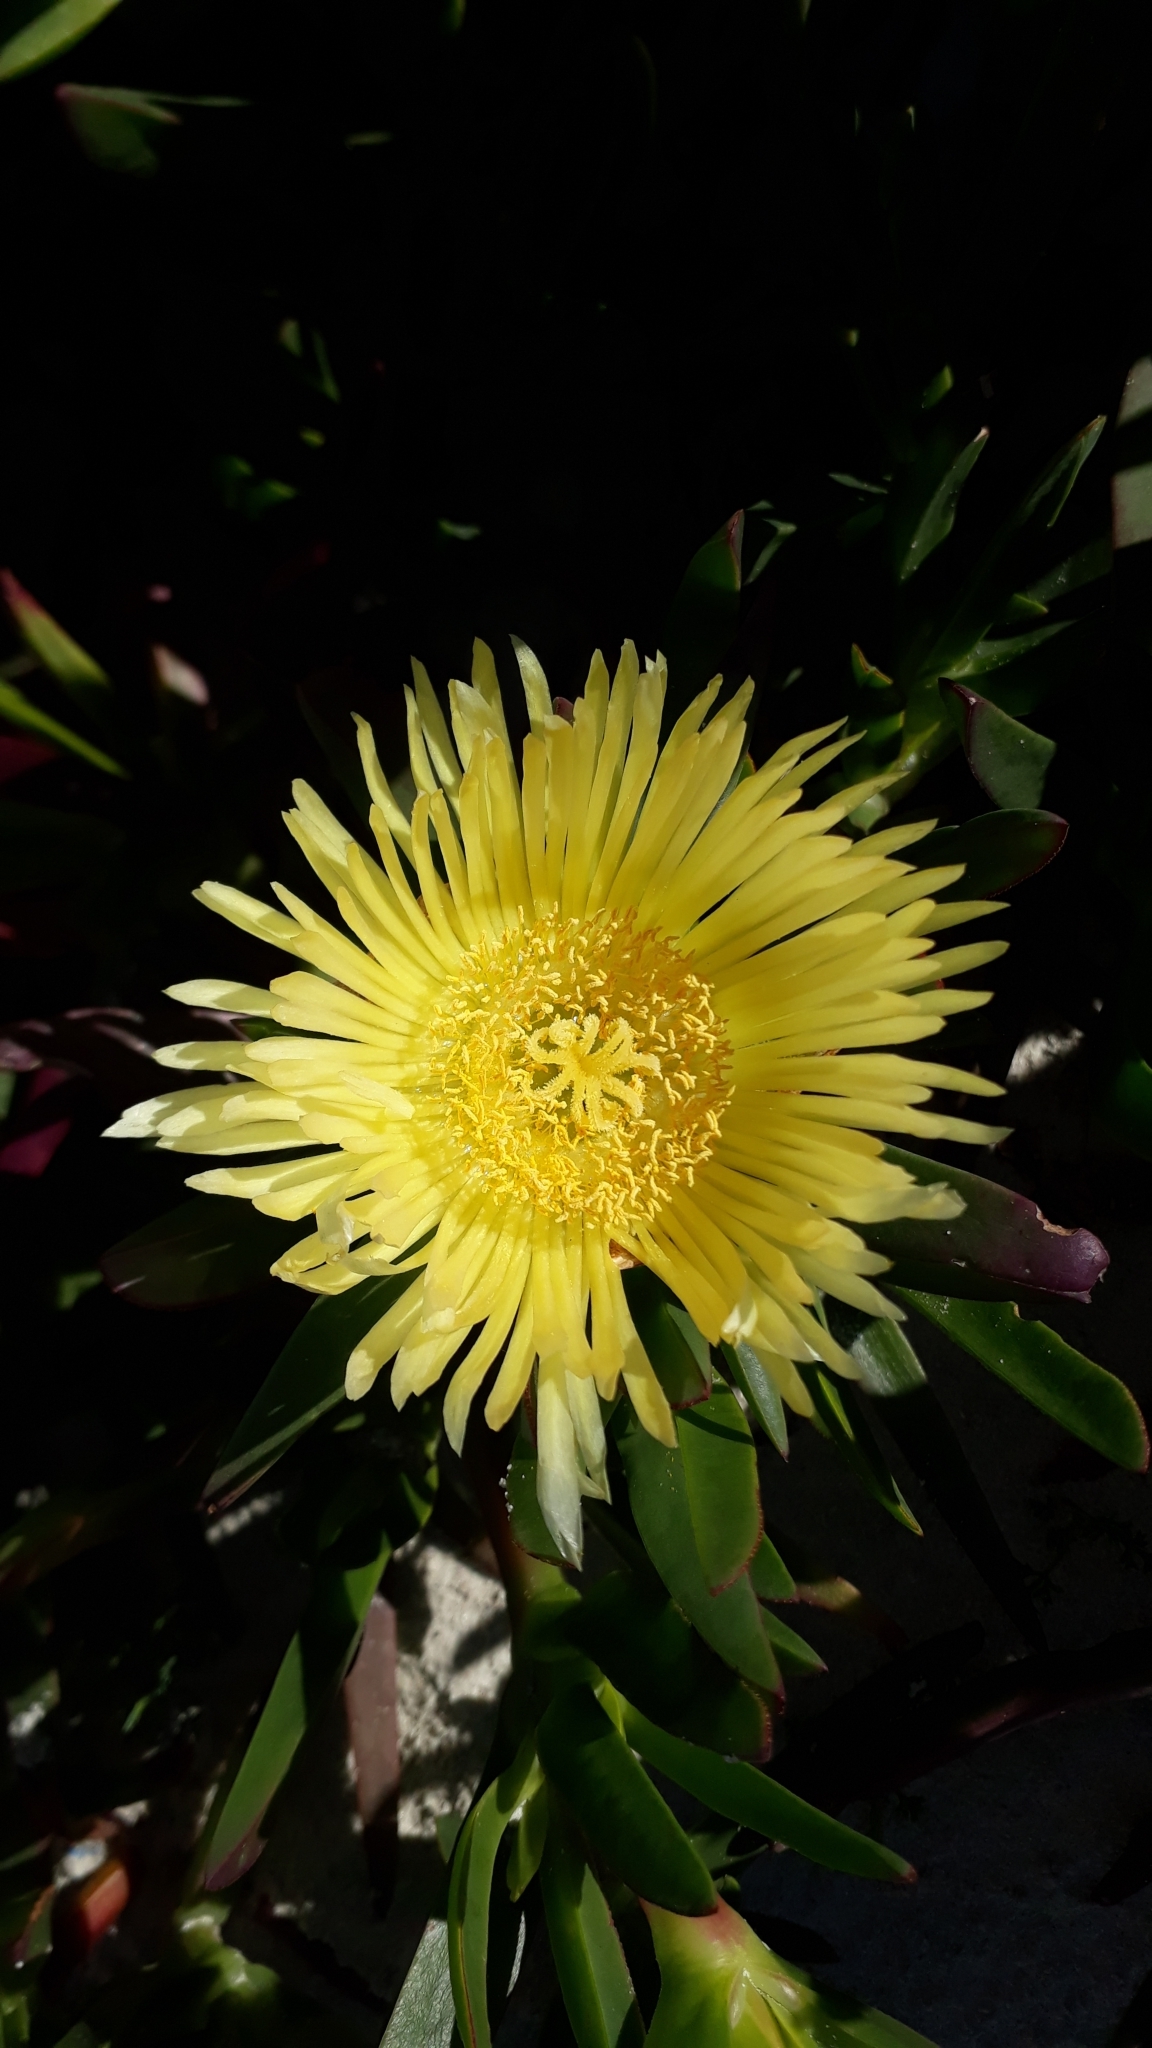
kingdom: Plantae
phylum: Tracheophyta
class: Magnoliopsida
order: Caryophyllales
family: Aizoaceae
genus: Carpobrotus
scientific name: Carpobrotus edulis
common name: Hottentot-fig
